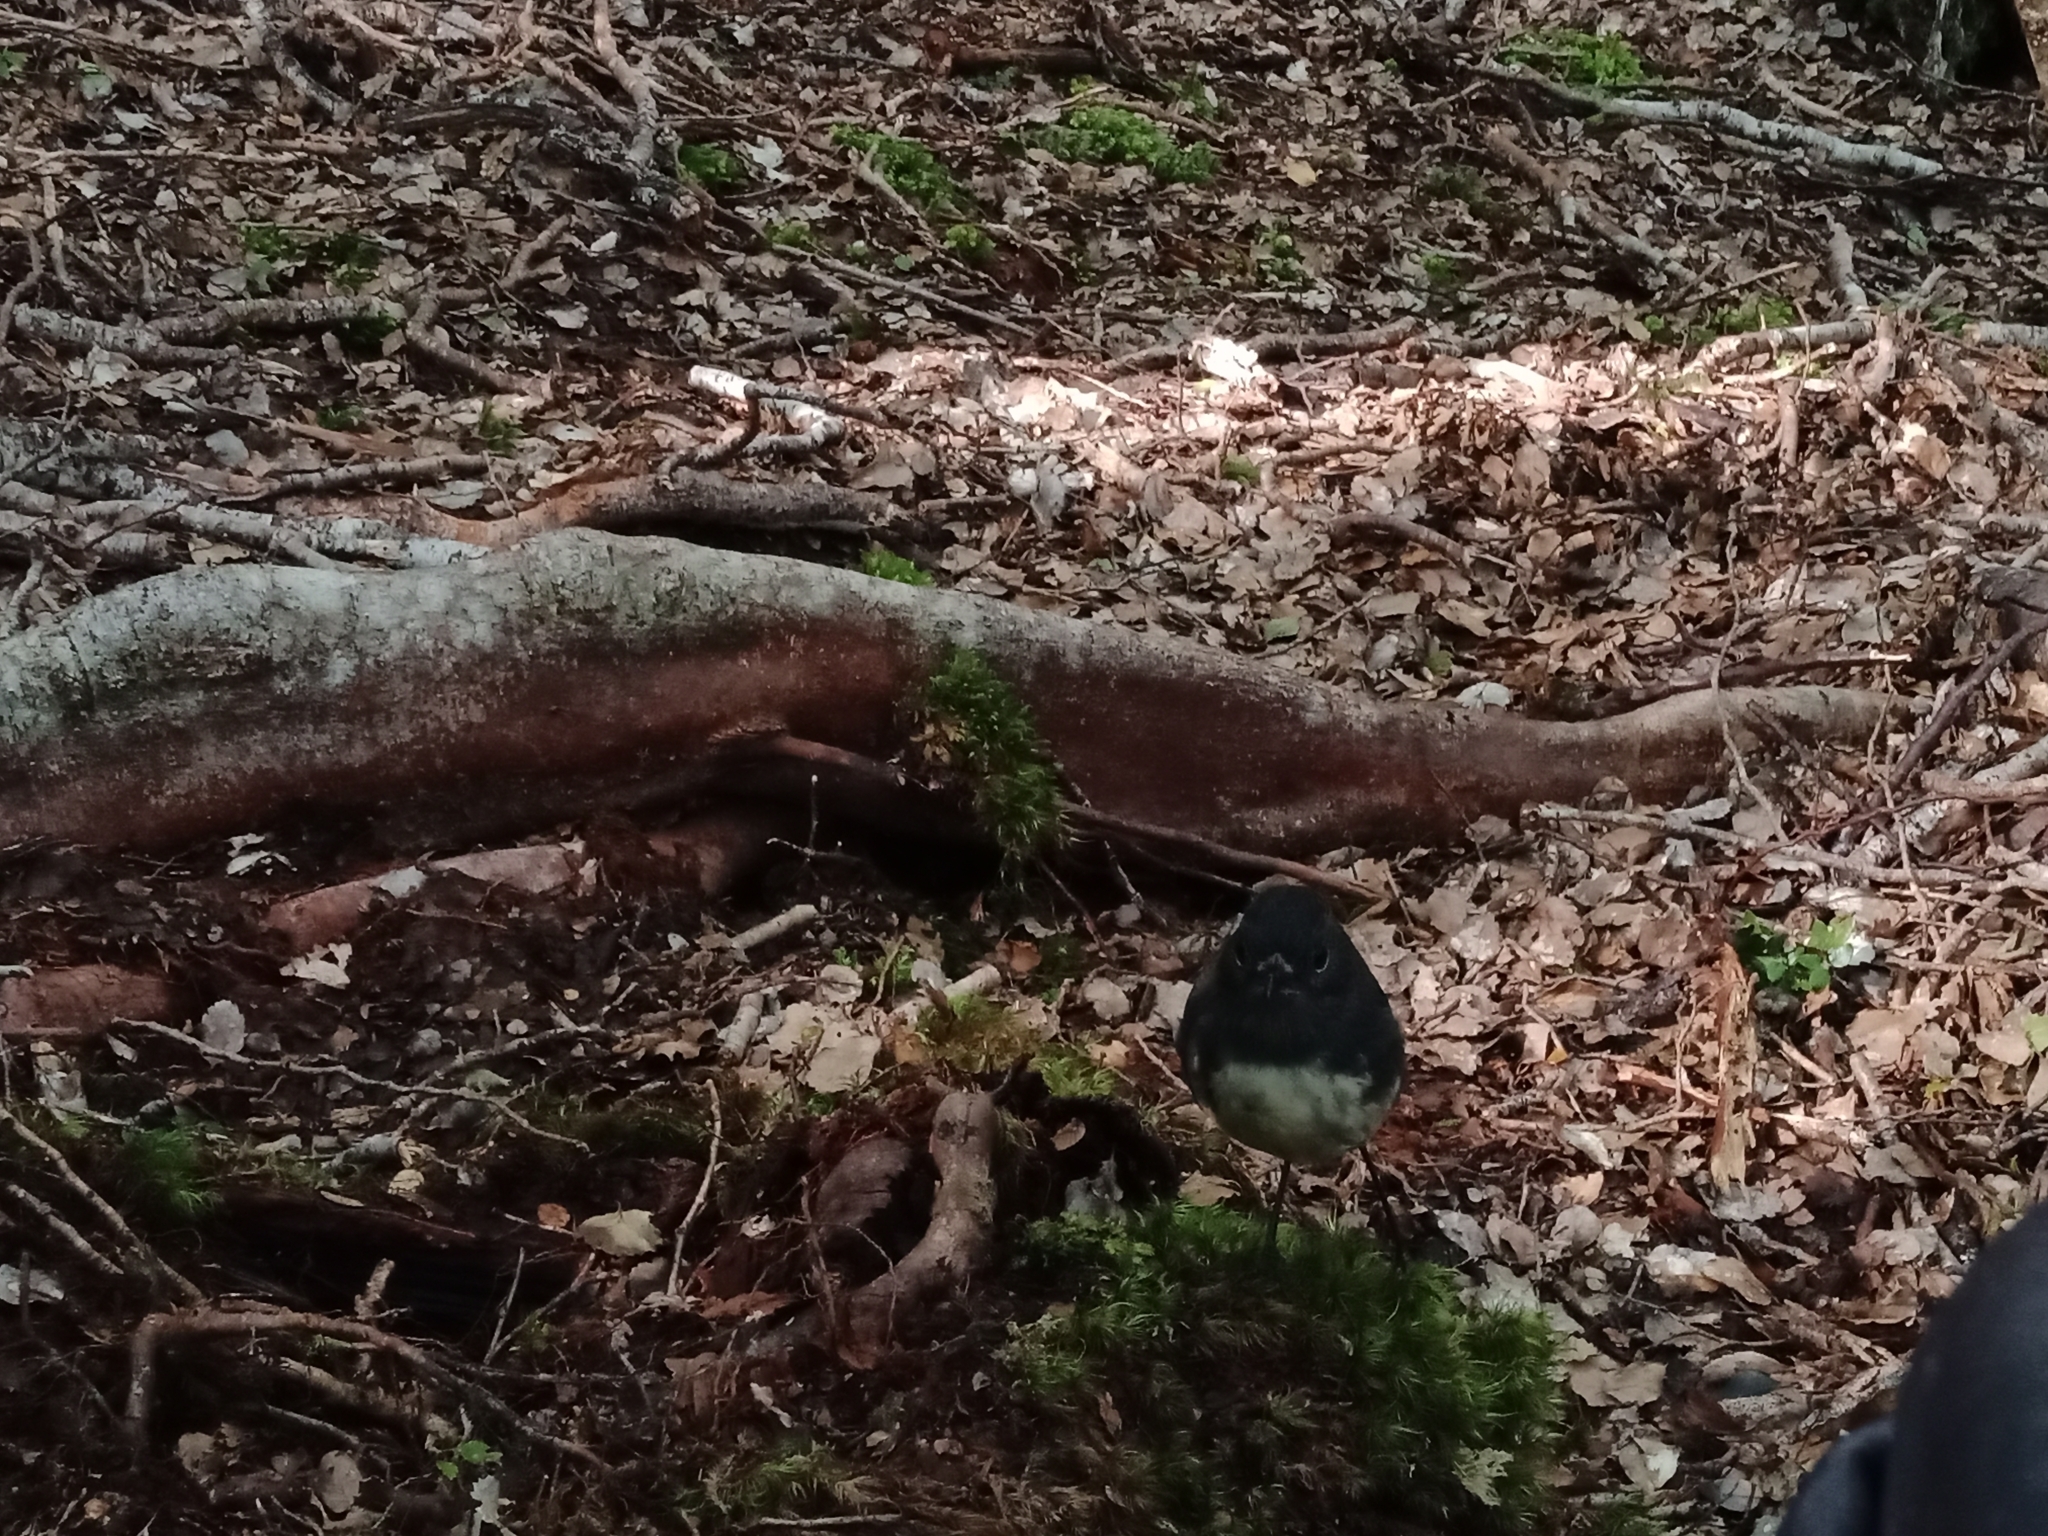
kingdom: Animalia
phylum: Chordata
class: Aves
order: Passeriformes
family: Petroicidae
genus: Petroica
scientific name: Petroica australis
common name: New zealand robin
